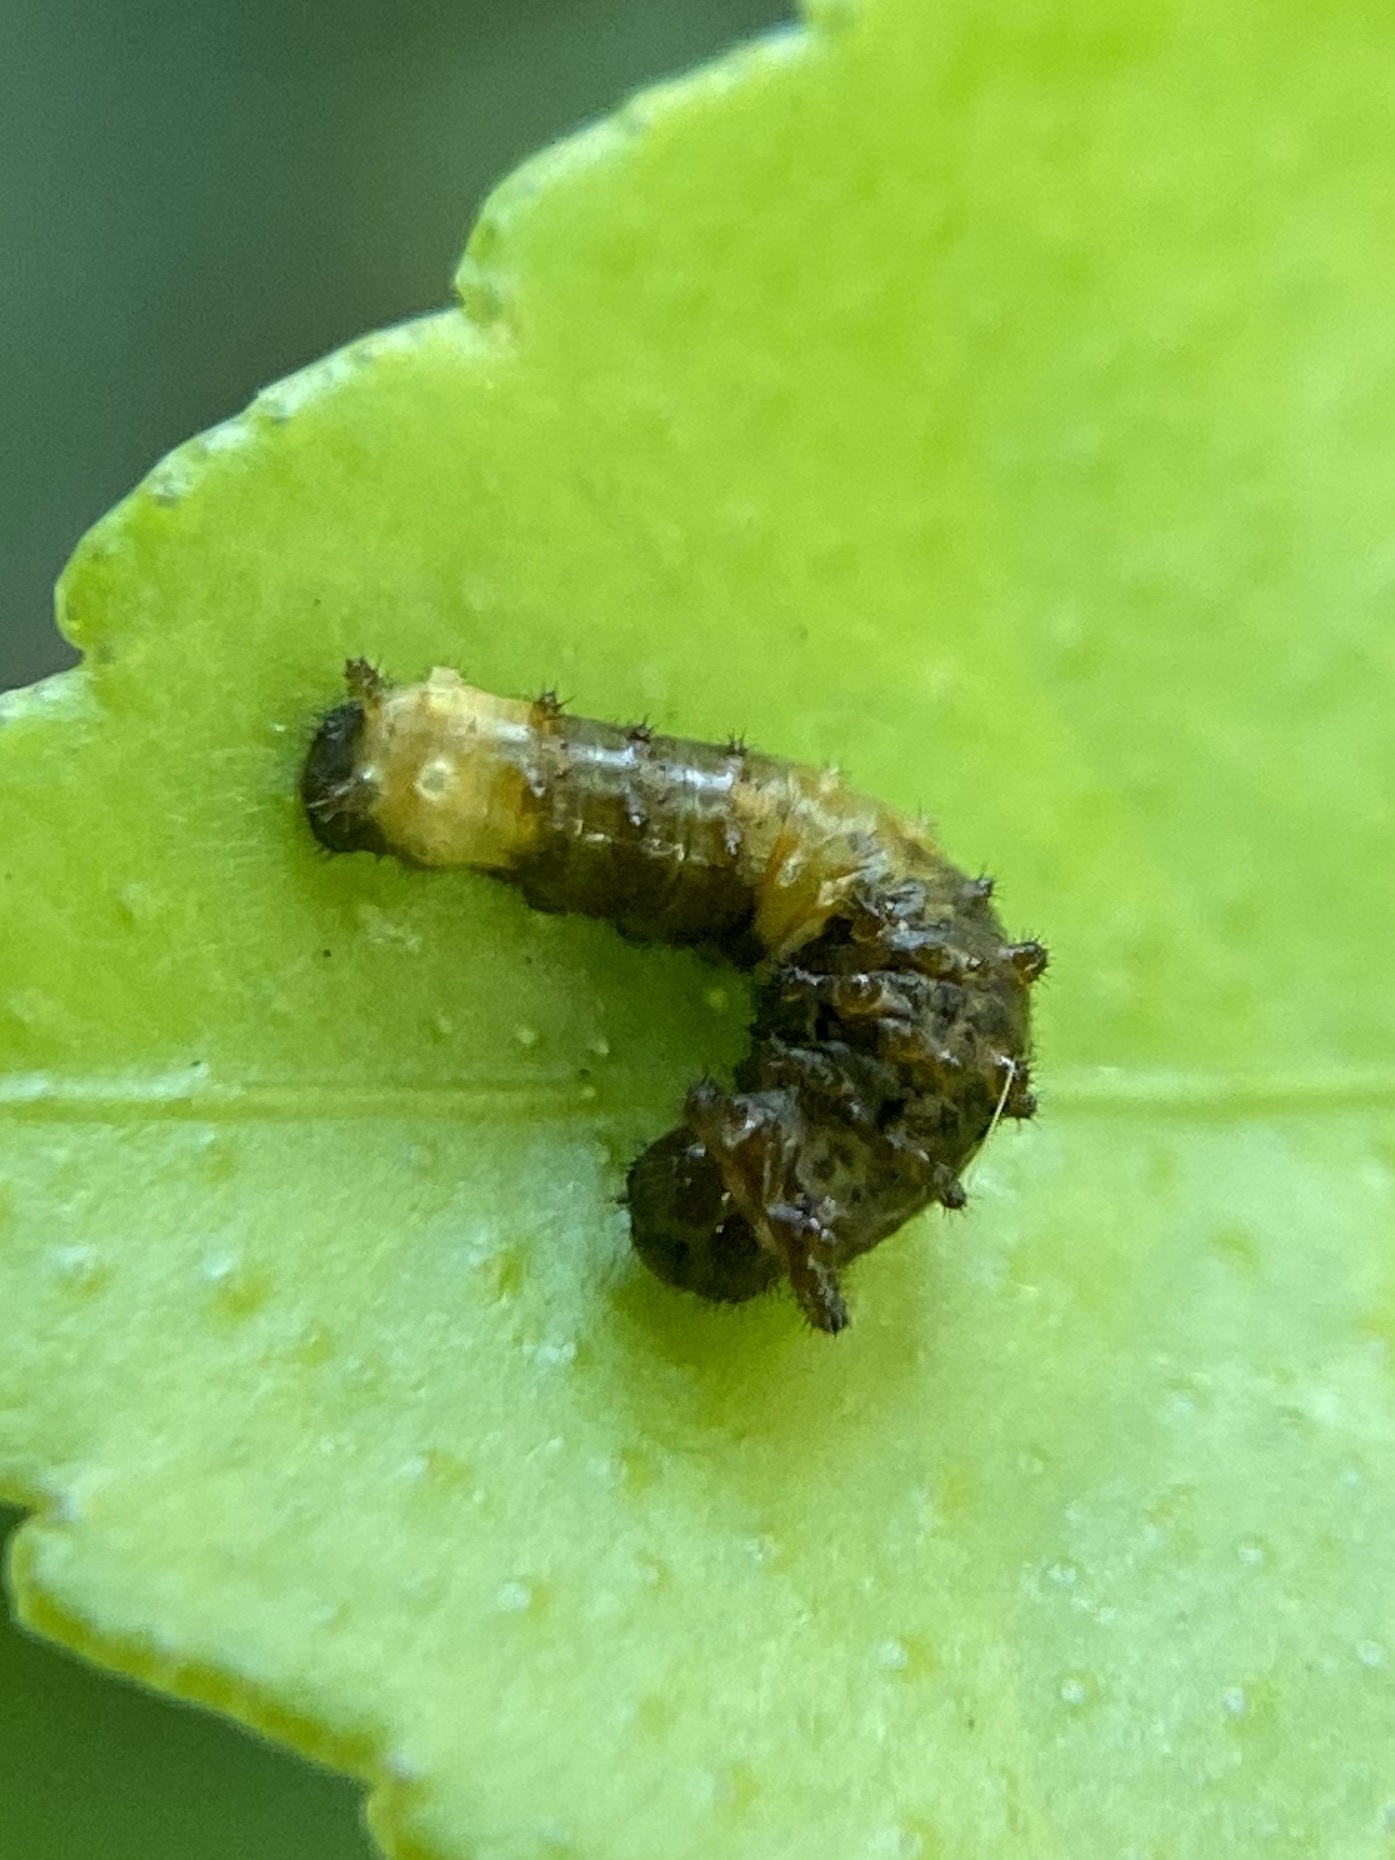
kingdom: Animalia
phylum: Arthropoda
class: Insecta
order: Lepidoptera
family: Papilionidae
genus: Papilio
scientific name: Papilio cresphontes
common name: Giant swallowtail
